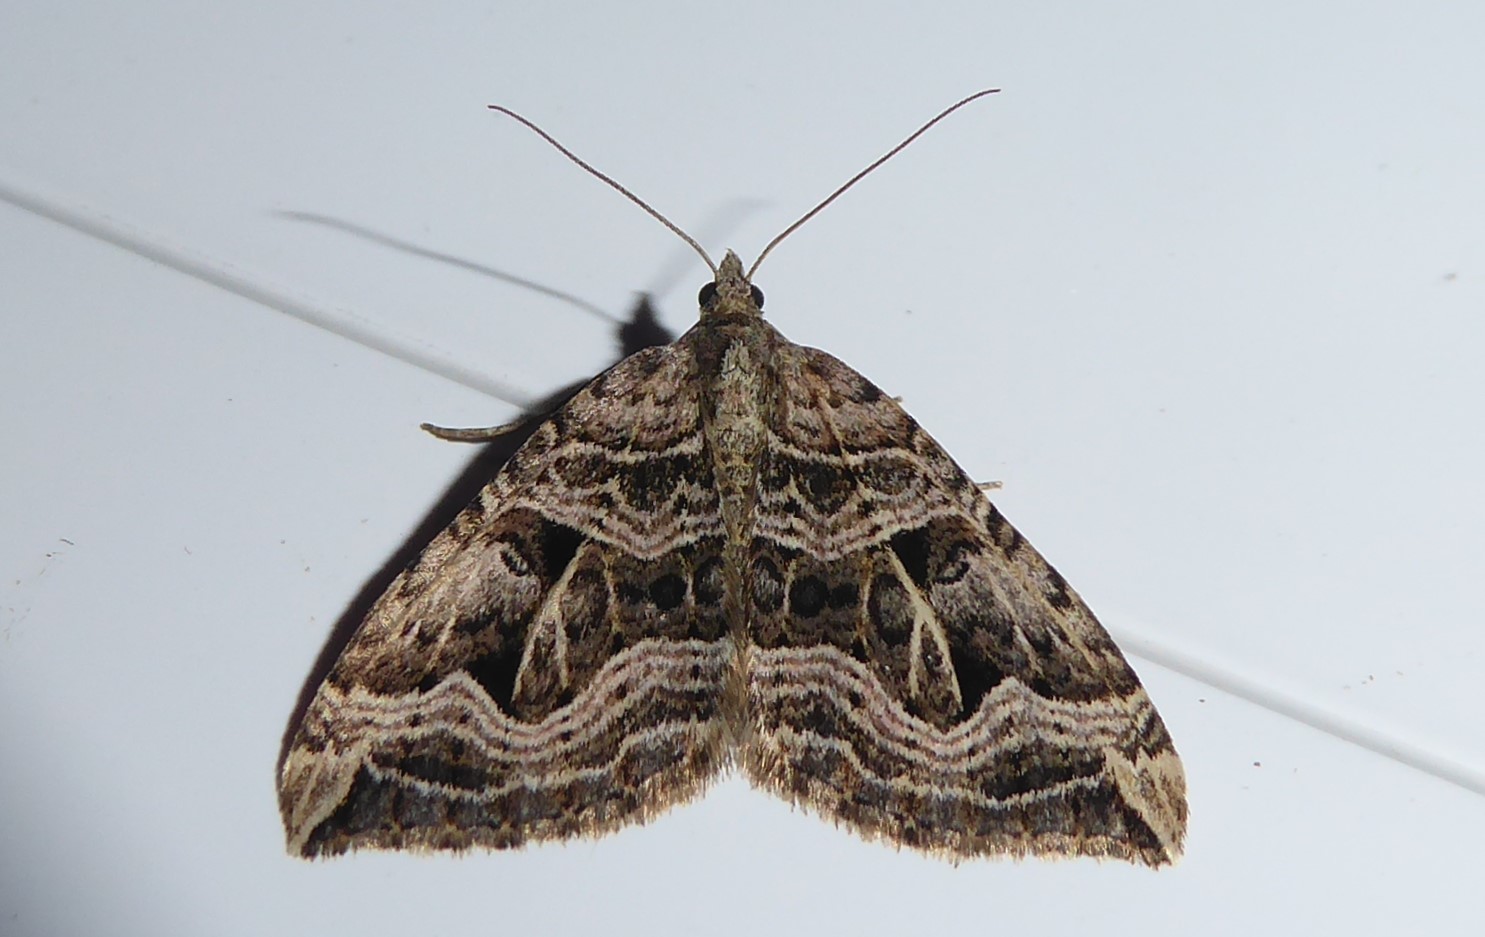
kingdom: Animalia
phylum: Arthropoda
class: Insecta
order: Lepidoptera
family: Geometridae
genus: Xanthorhoe
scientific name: Xanthorhoe semifissata
